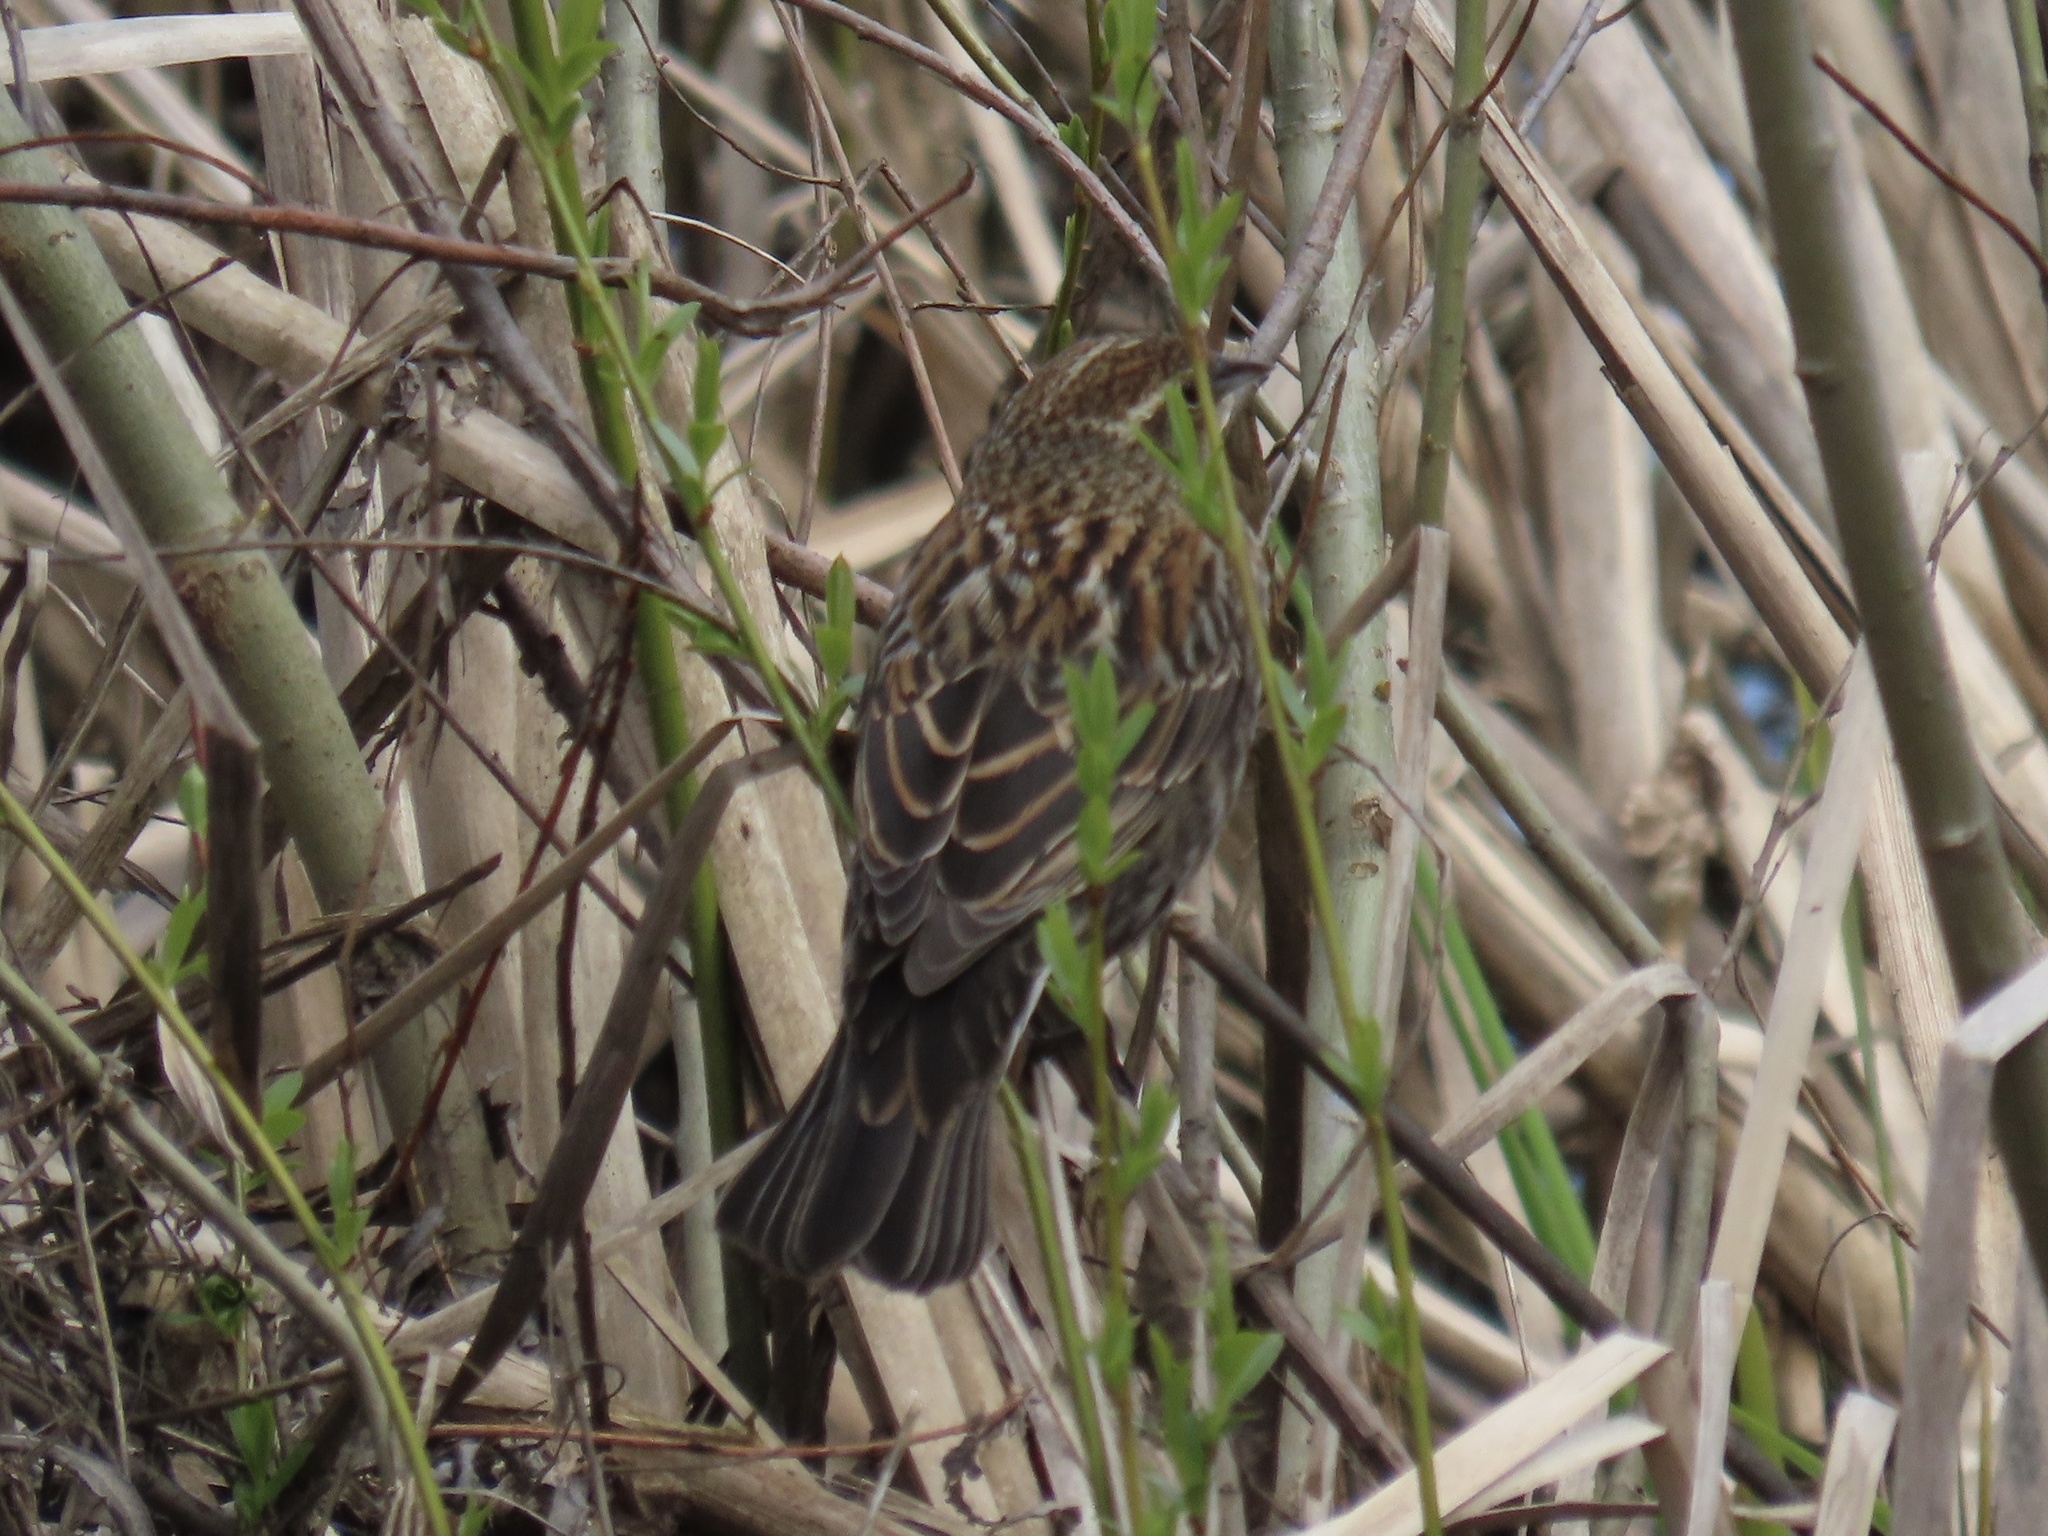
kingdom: Animalia
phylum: Chordata
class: Aves
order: Passeriformes
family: Icteridae
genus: Agelaius
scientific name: Agelaius phoeniceus
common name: Red-winged blackbird
